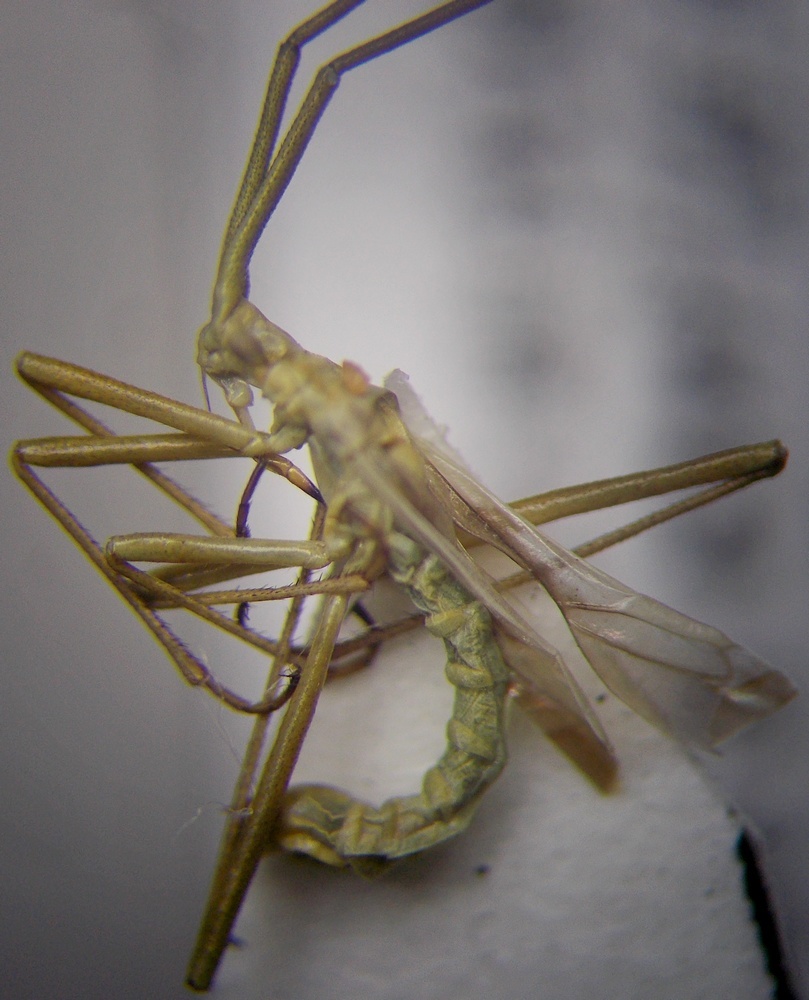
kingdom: Animalia
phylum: Arthropoda
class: Insecta
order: Hemiptera
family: Miridae
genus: Chorosomella
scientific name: Chorosomella jakowleffi
